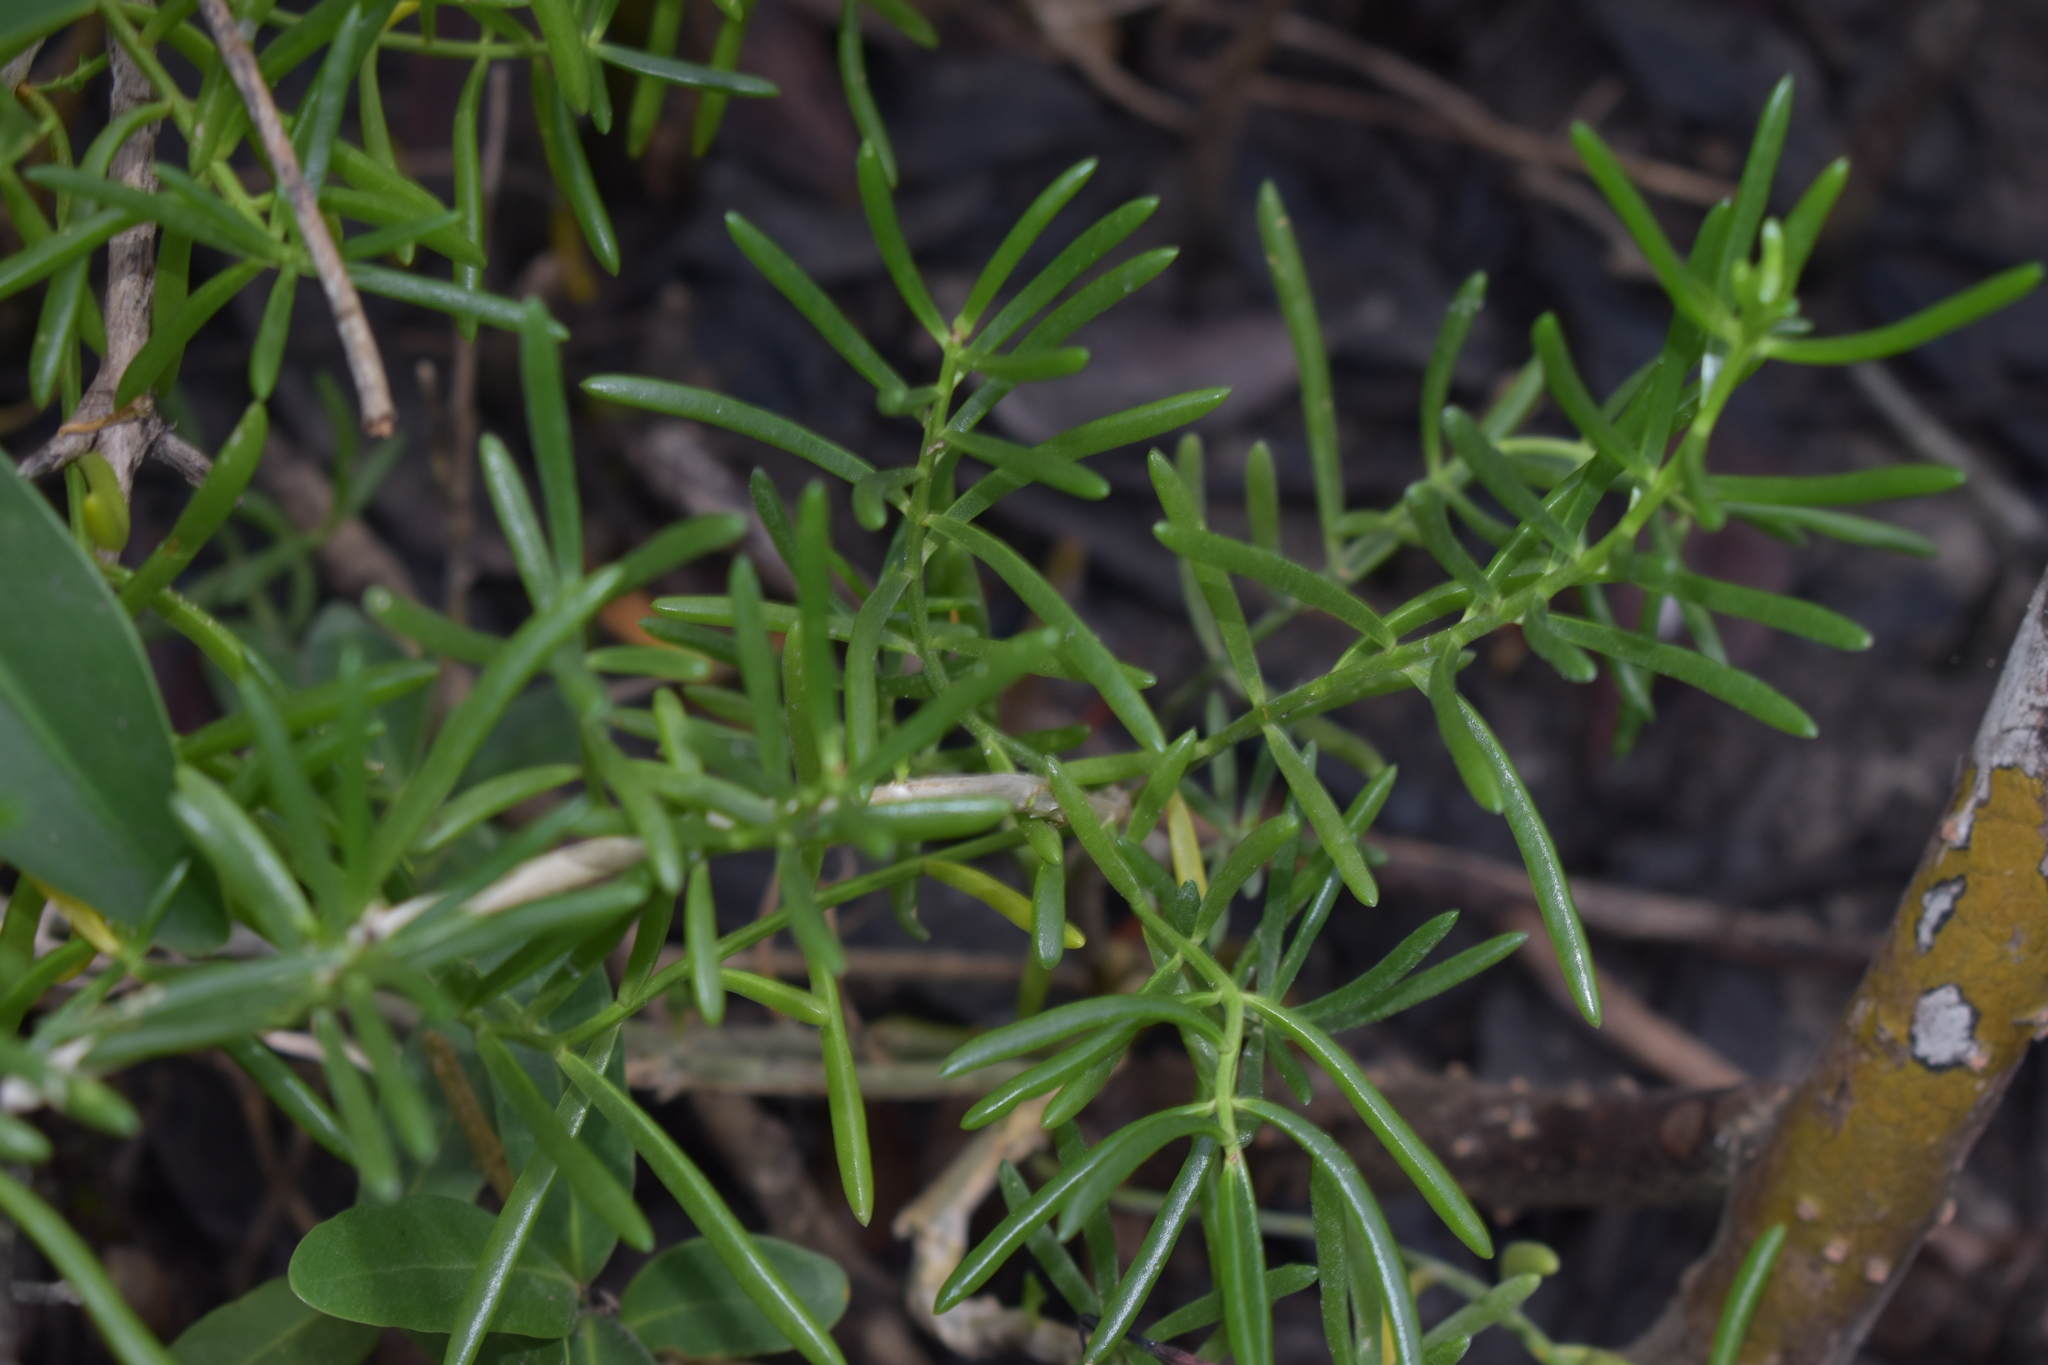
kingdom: Plantae
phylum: Tracheophyta
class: Magnoliopsida
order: Brassicales
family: Bataceae
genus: Batis
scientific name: Batis maritima
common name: Turtleweed
